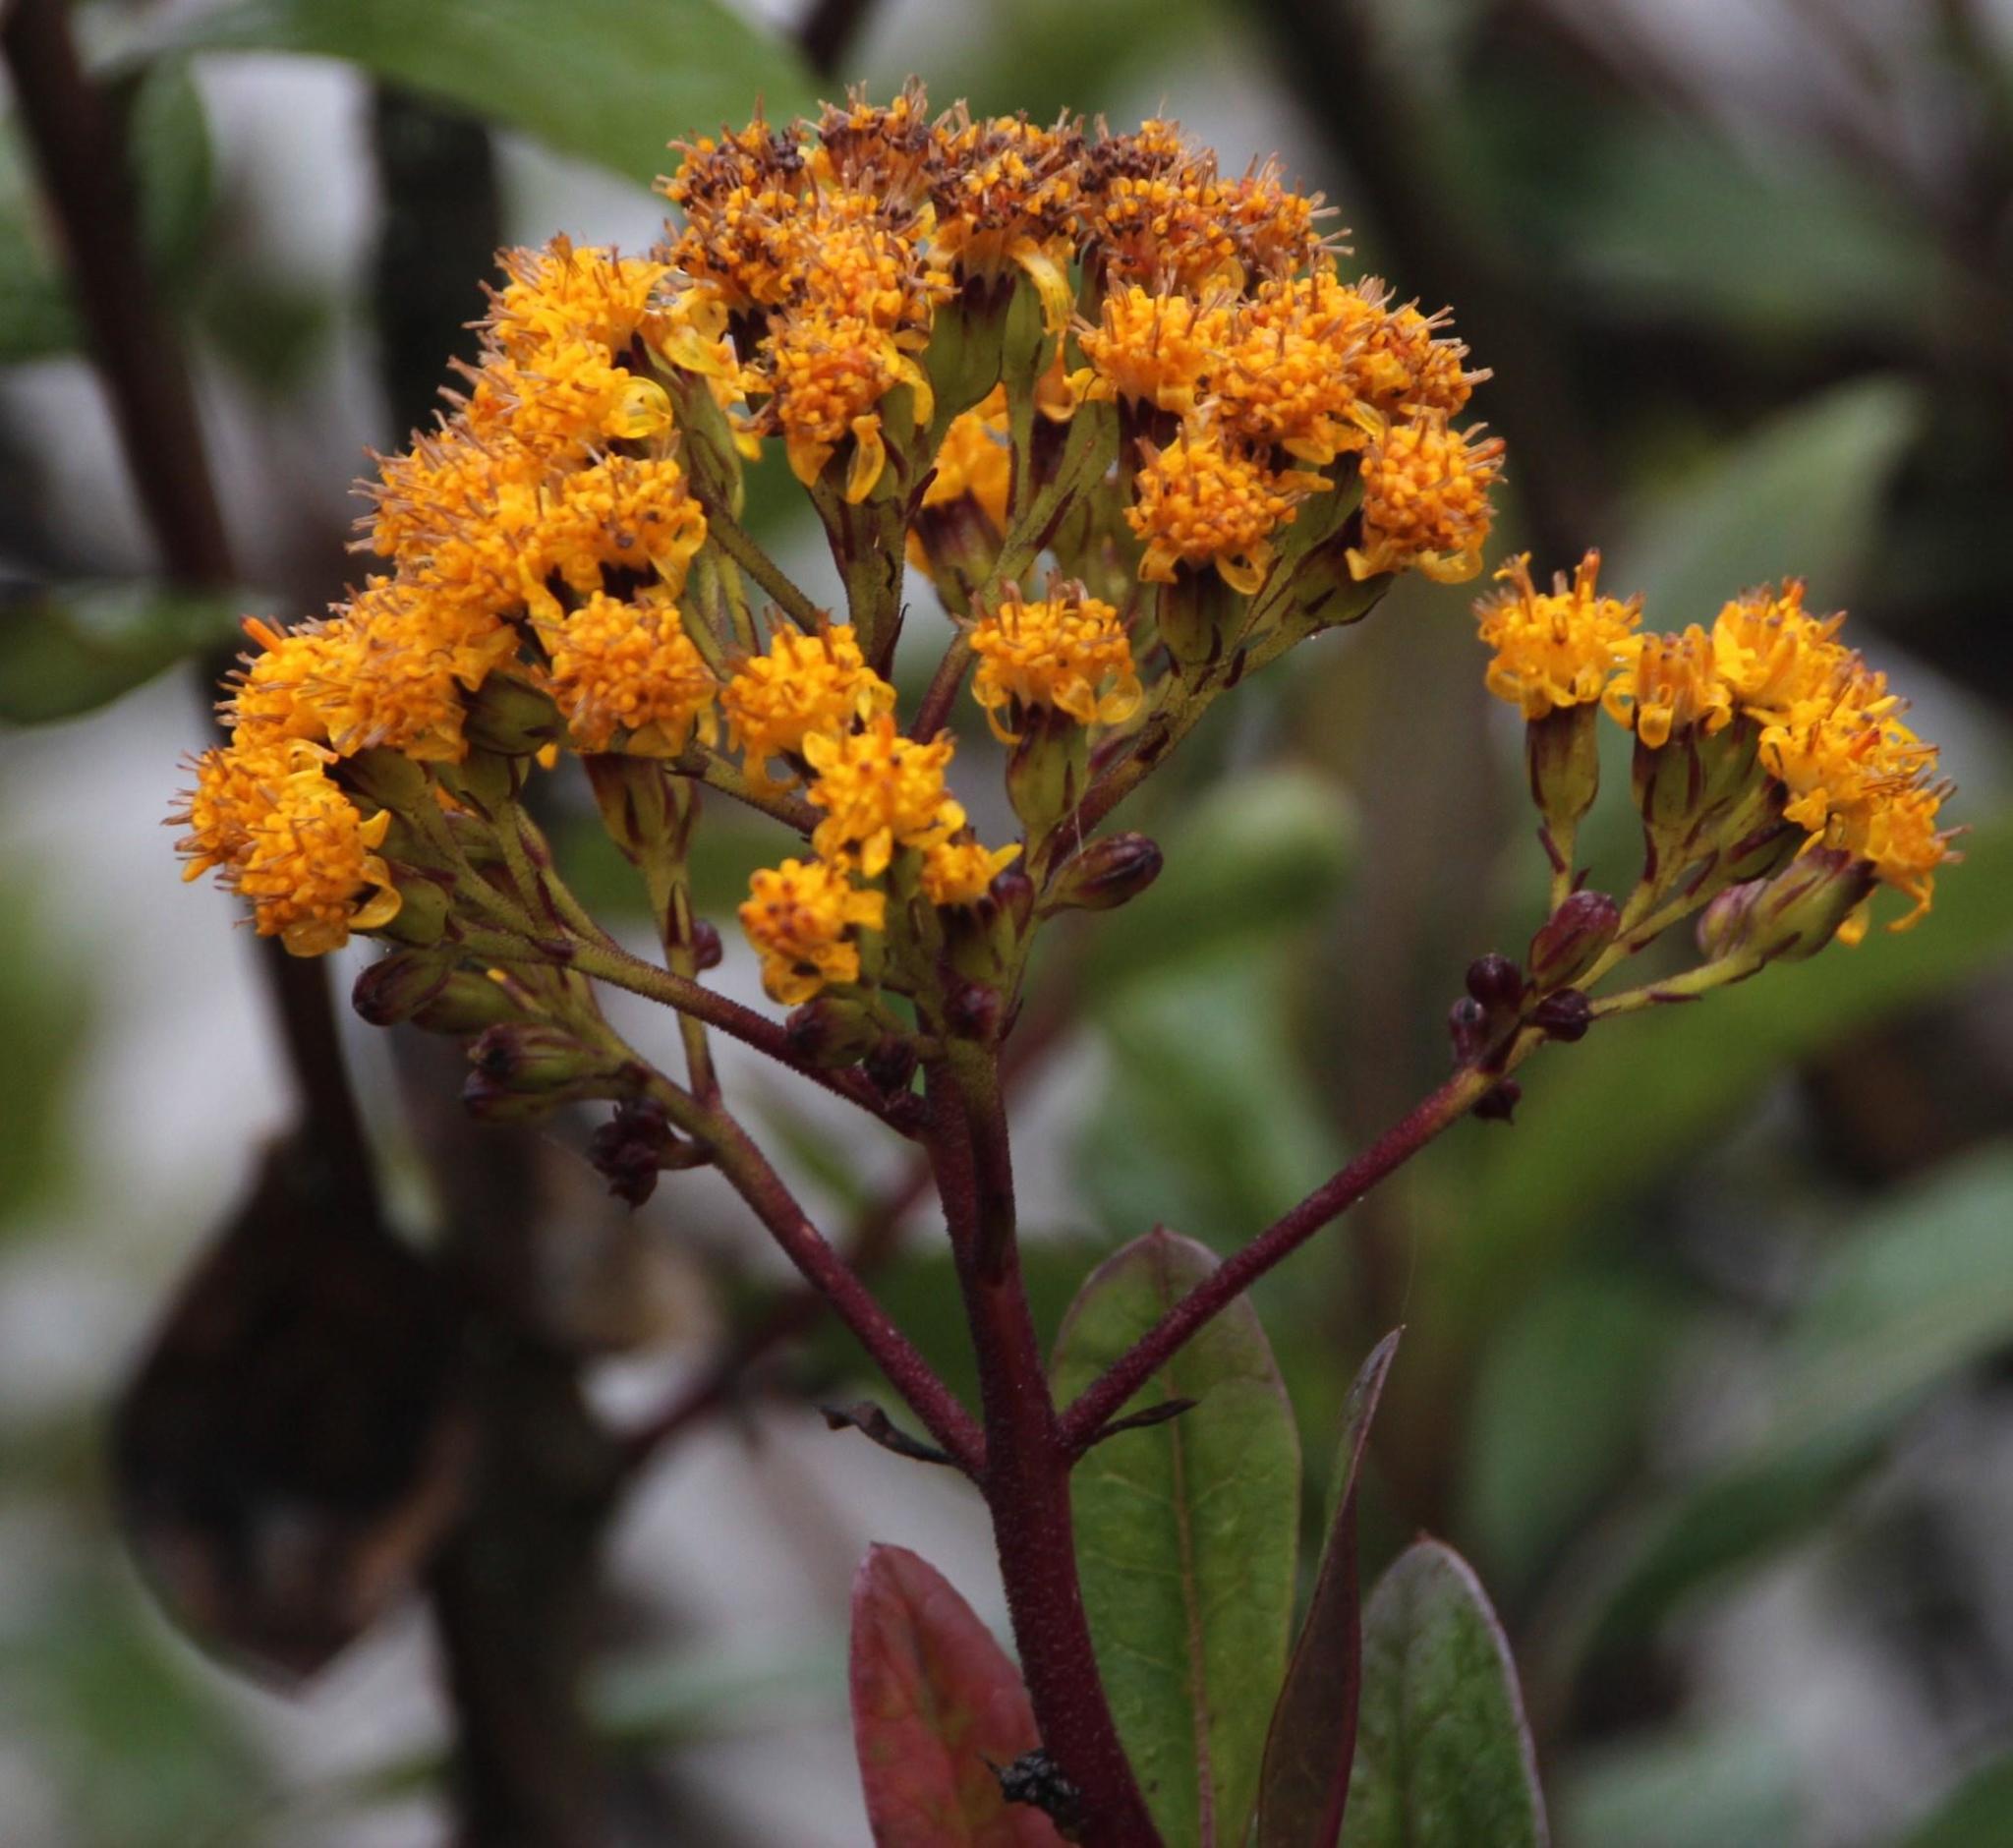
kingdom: Plantae
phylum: Tracheophyta
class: Magnoliopsida
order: Asterales
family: Asteraceae
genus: Pentacalia
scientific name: Pentacalia nunezii
